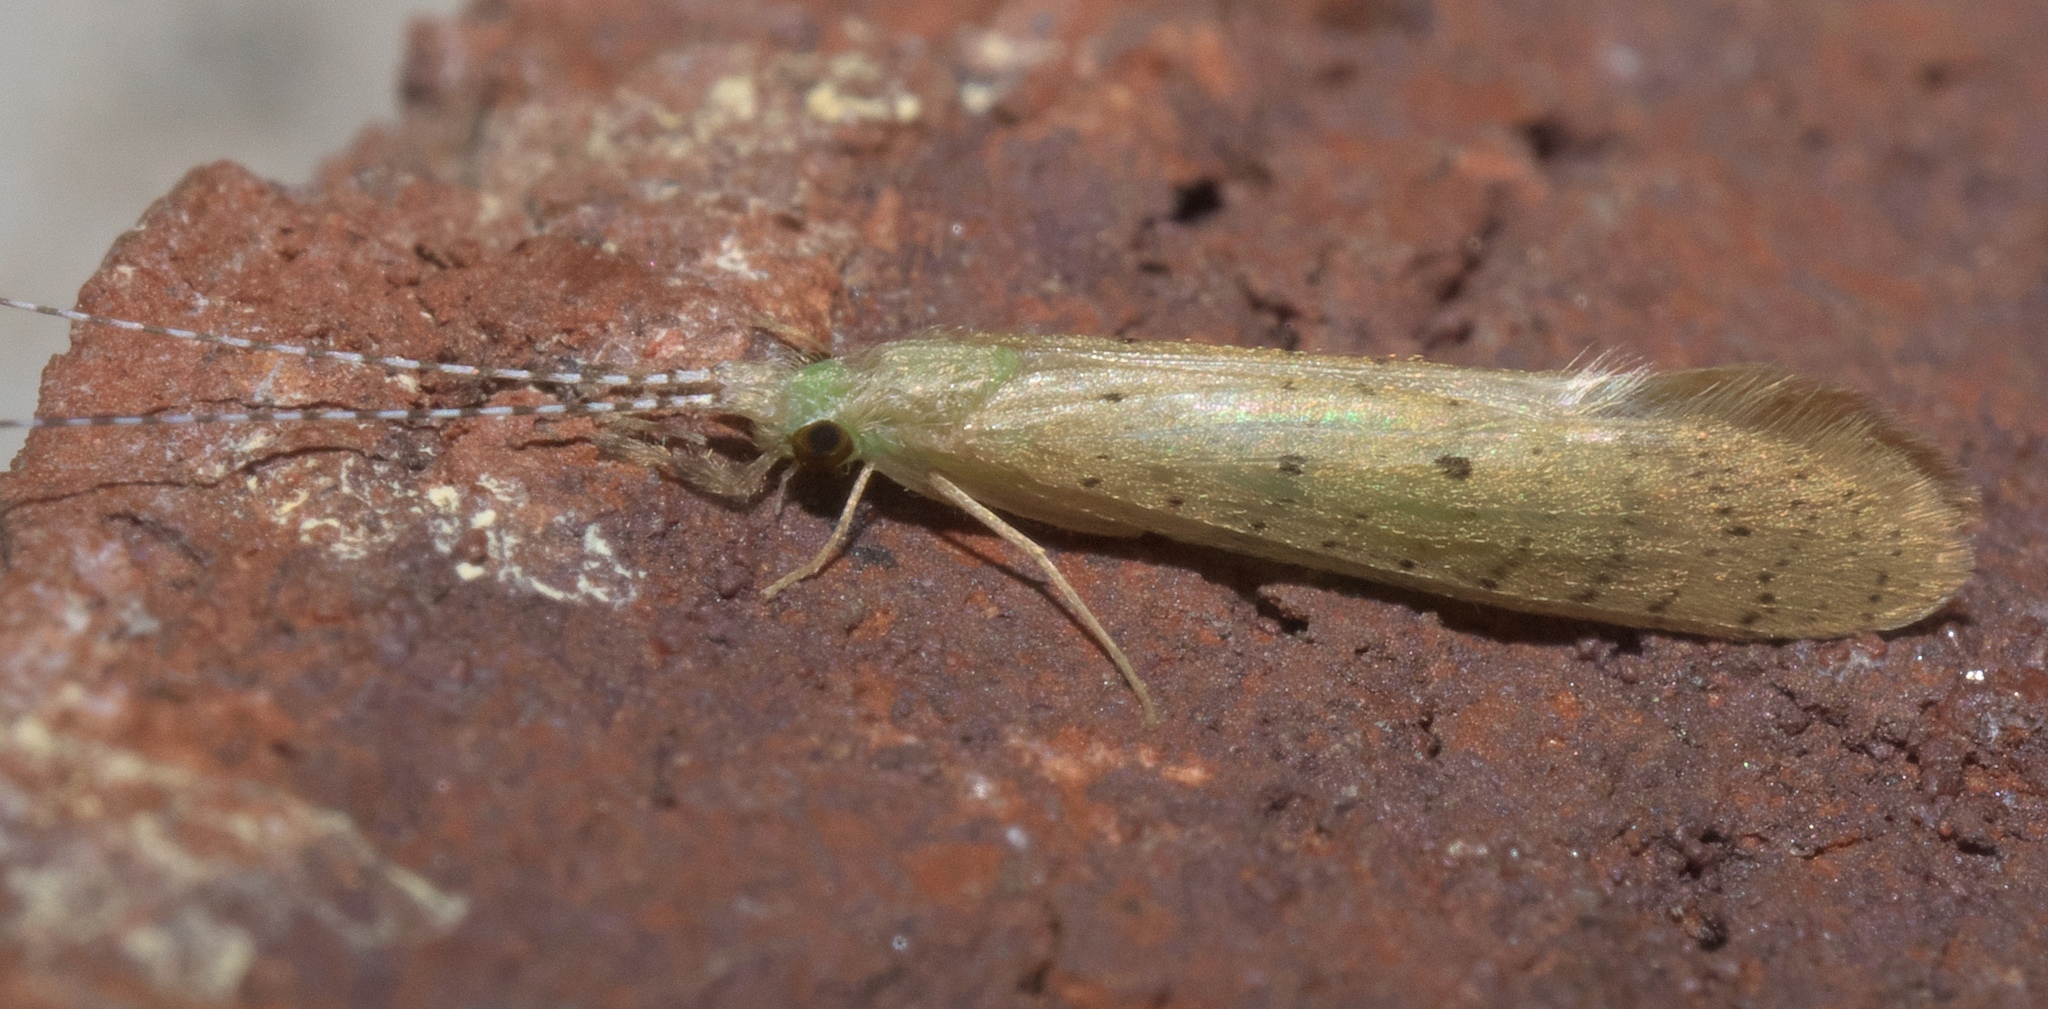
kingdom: Animalia
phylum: Arthropoda
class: Insecta
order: Trichoptera
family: Leptoceridae
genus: Nectopsyche
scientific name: Nectopsyche pavida
